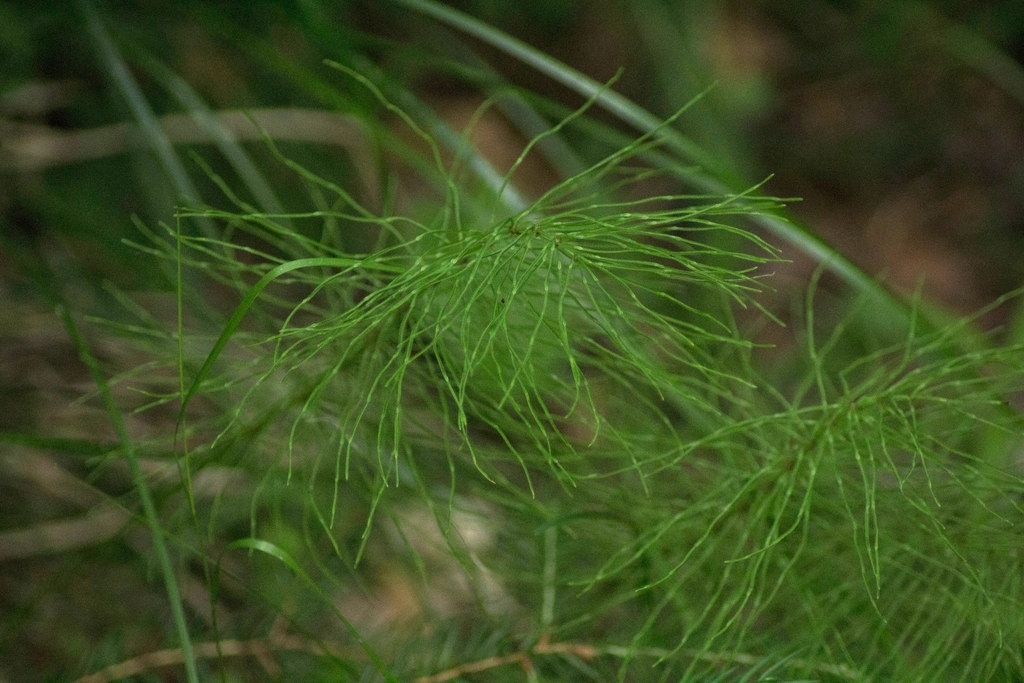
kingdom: Plantae
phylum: Tracheophyta
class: Polypodiopsida
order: Equisetales
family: Equisetaceae
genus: Equisetum
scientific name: Equisetum pratense
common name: Meadow horsetail
